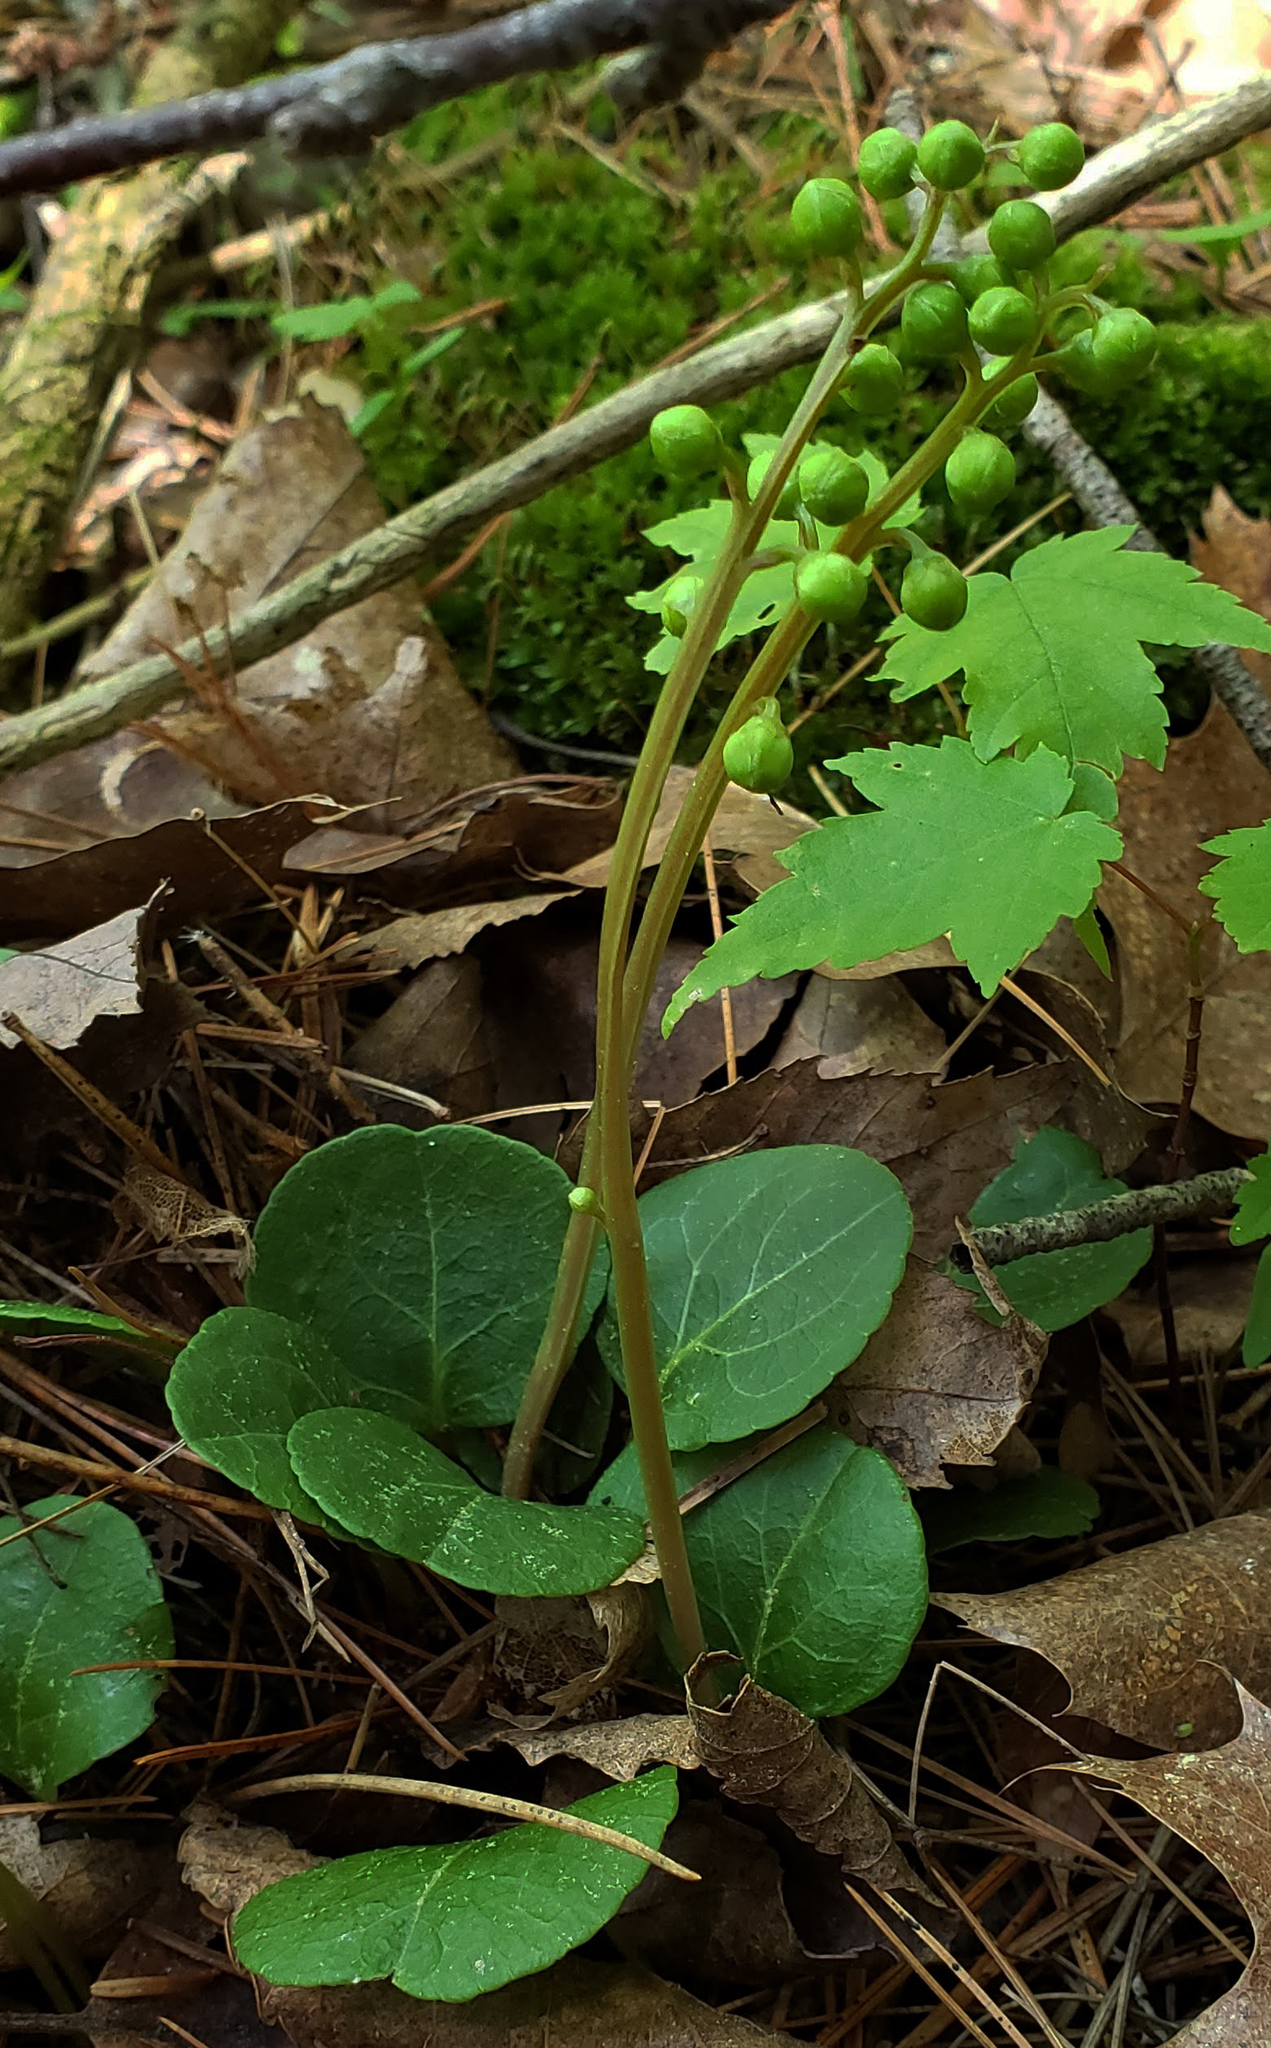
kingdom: Plantae
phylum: Tracheophyta
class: Magnoliopsida
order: Ericales
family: Ericaceae
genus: Pyrola
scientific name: Pyrola elliptica
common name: Shinleaf
